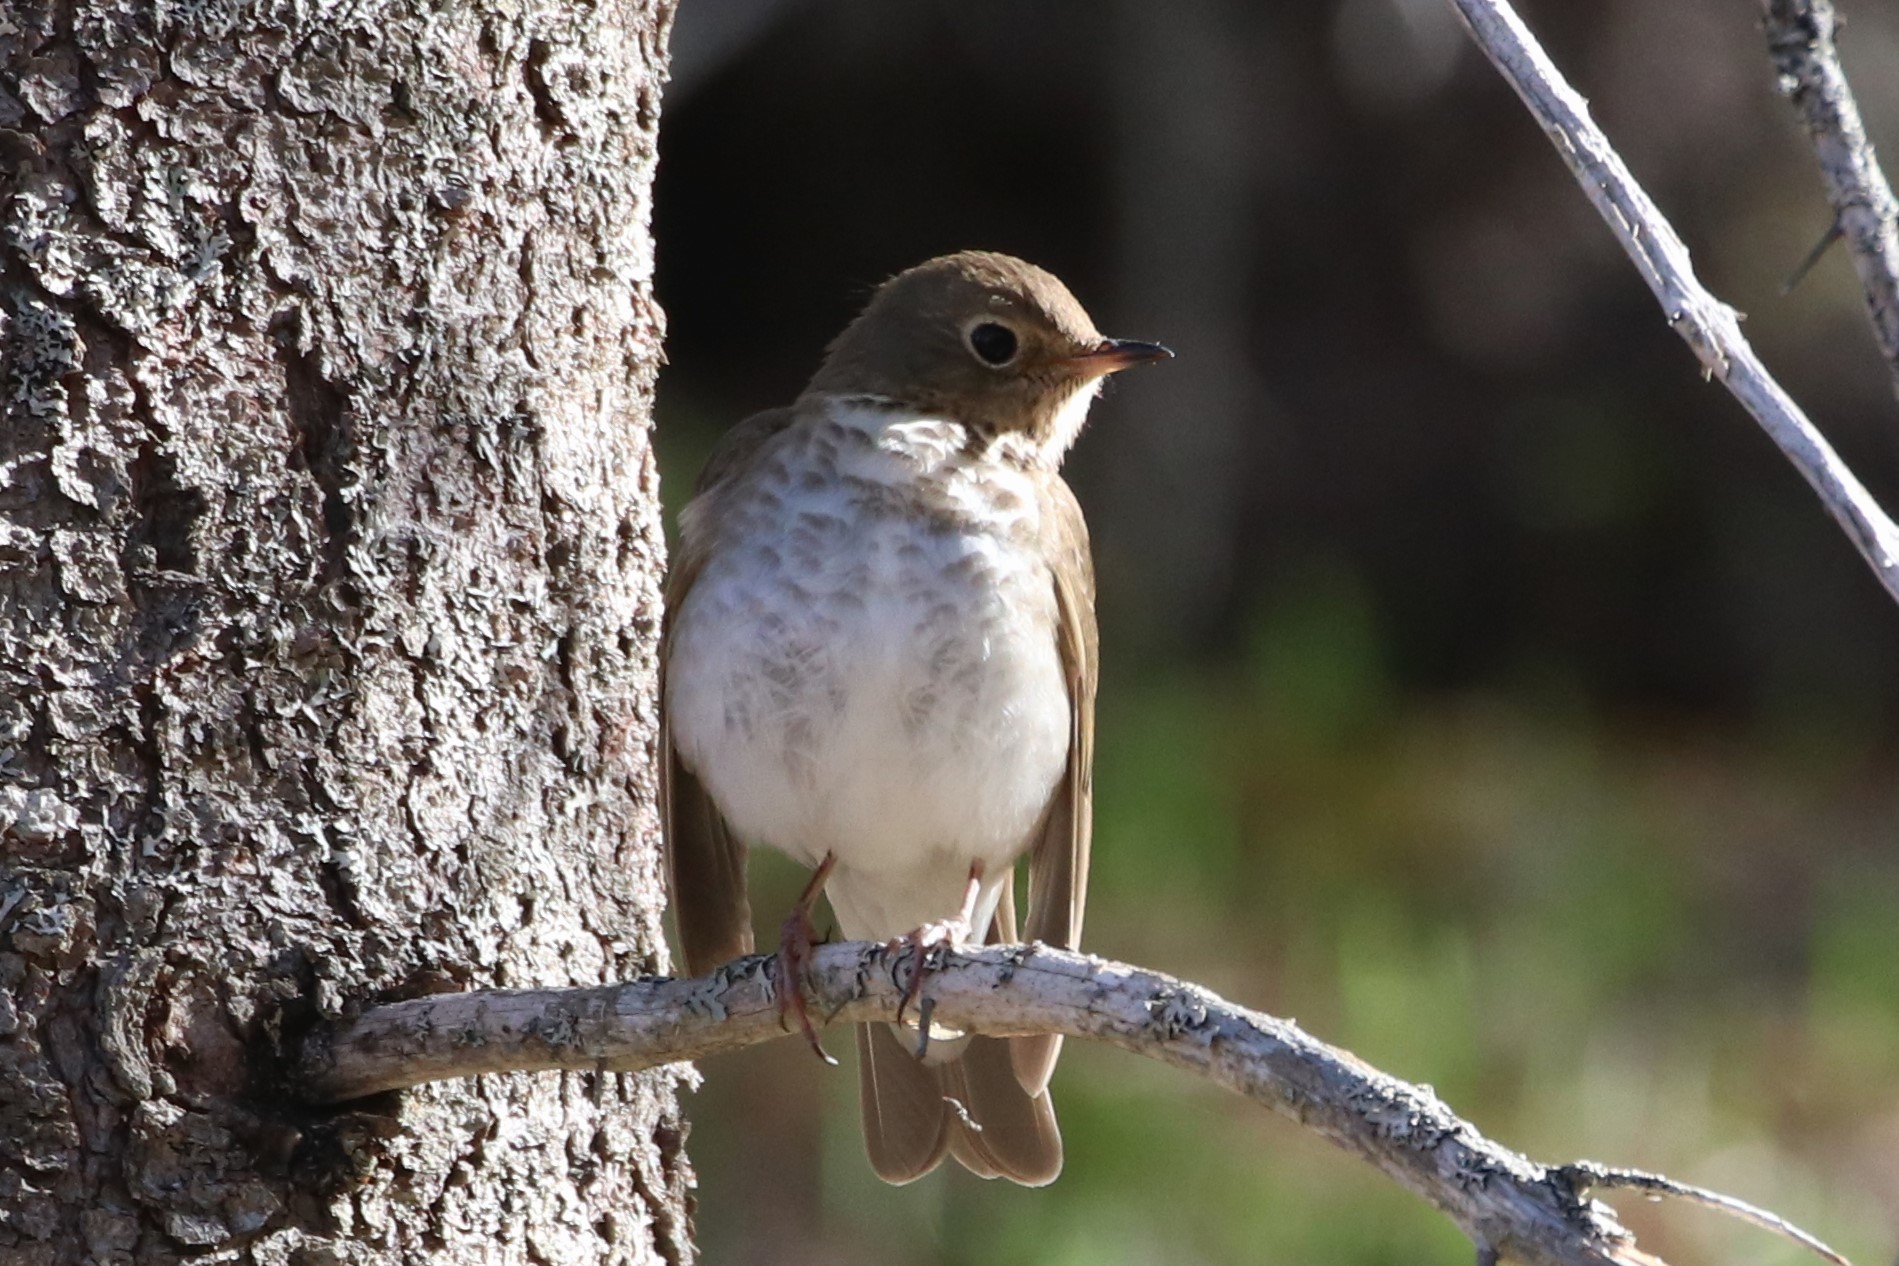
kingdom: Animalia
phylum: Chordata
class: Aves
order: Passeriformes
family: Turdidae
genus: Catharus
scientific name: Catharus ustulatus
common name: Swainson's thrush
